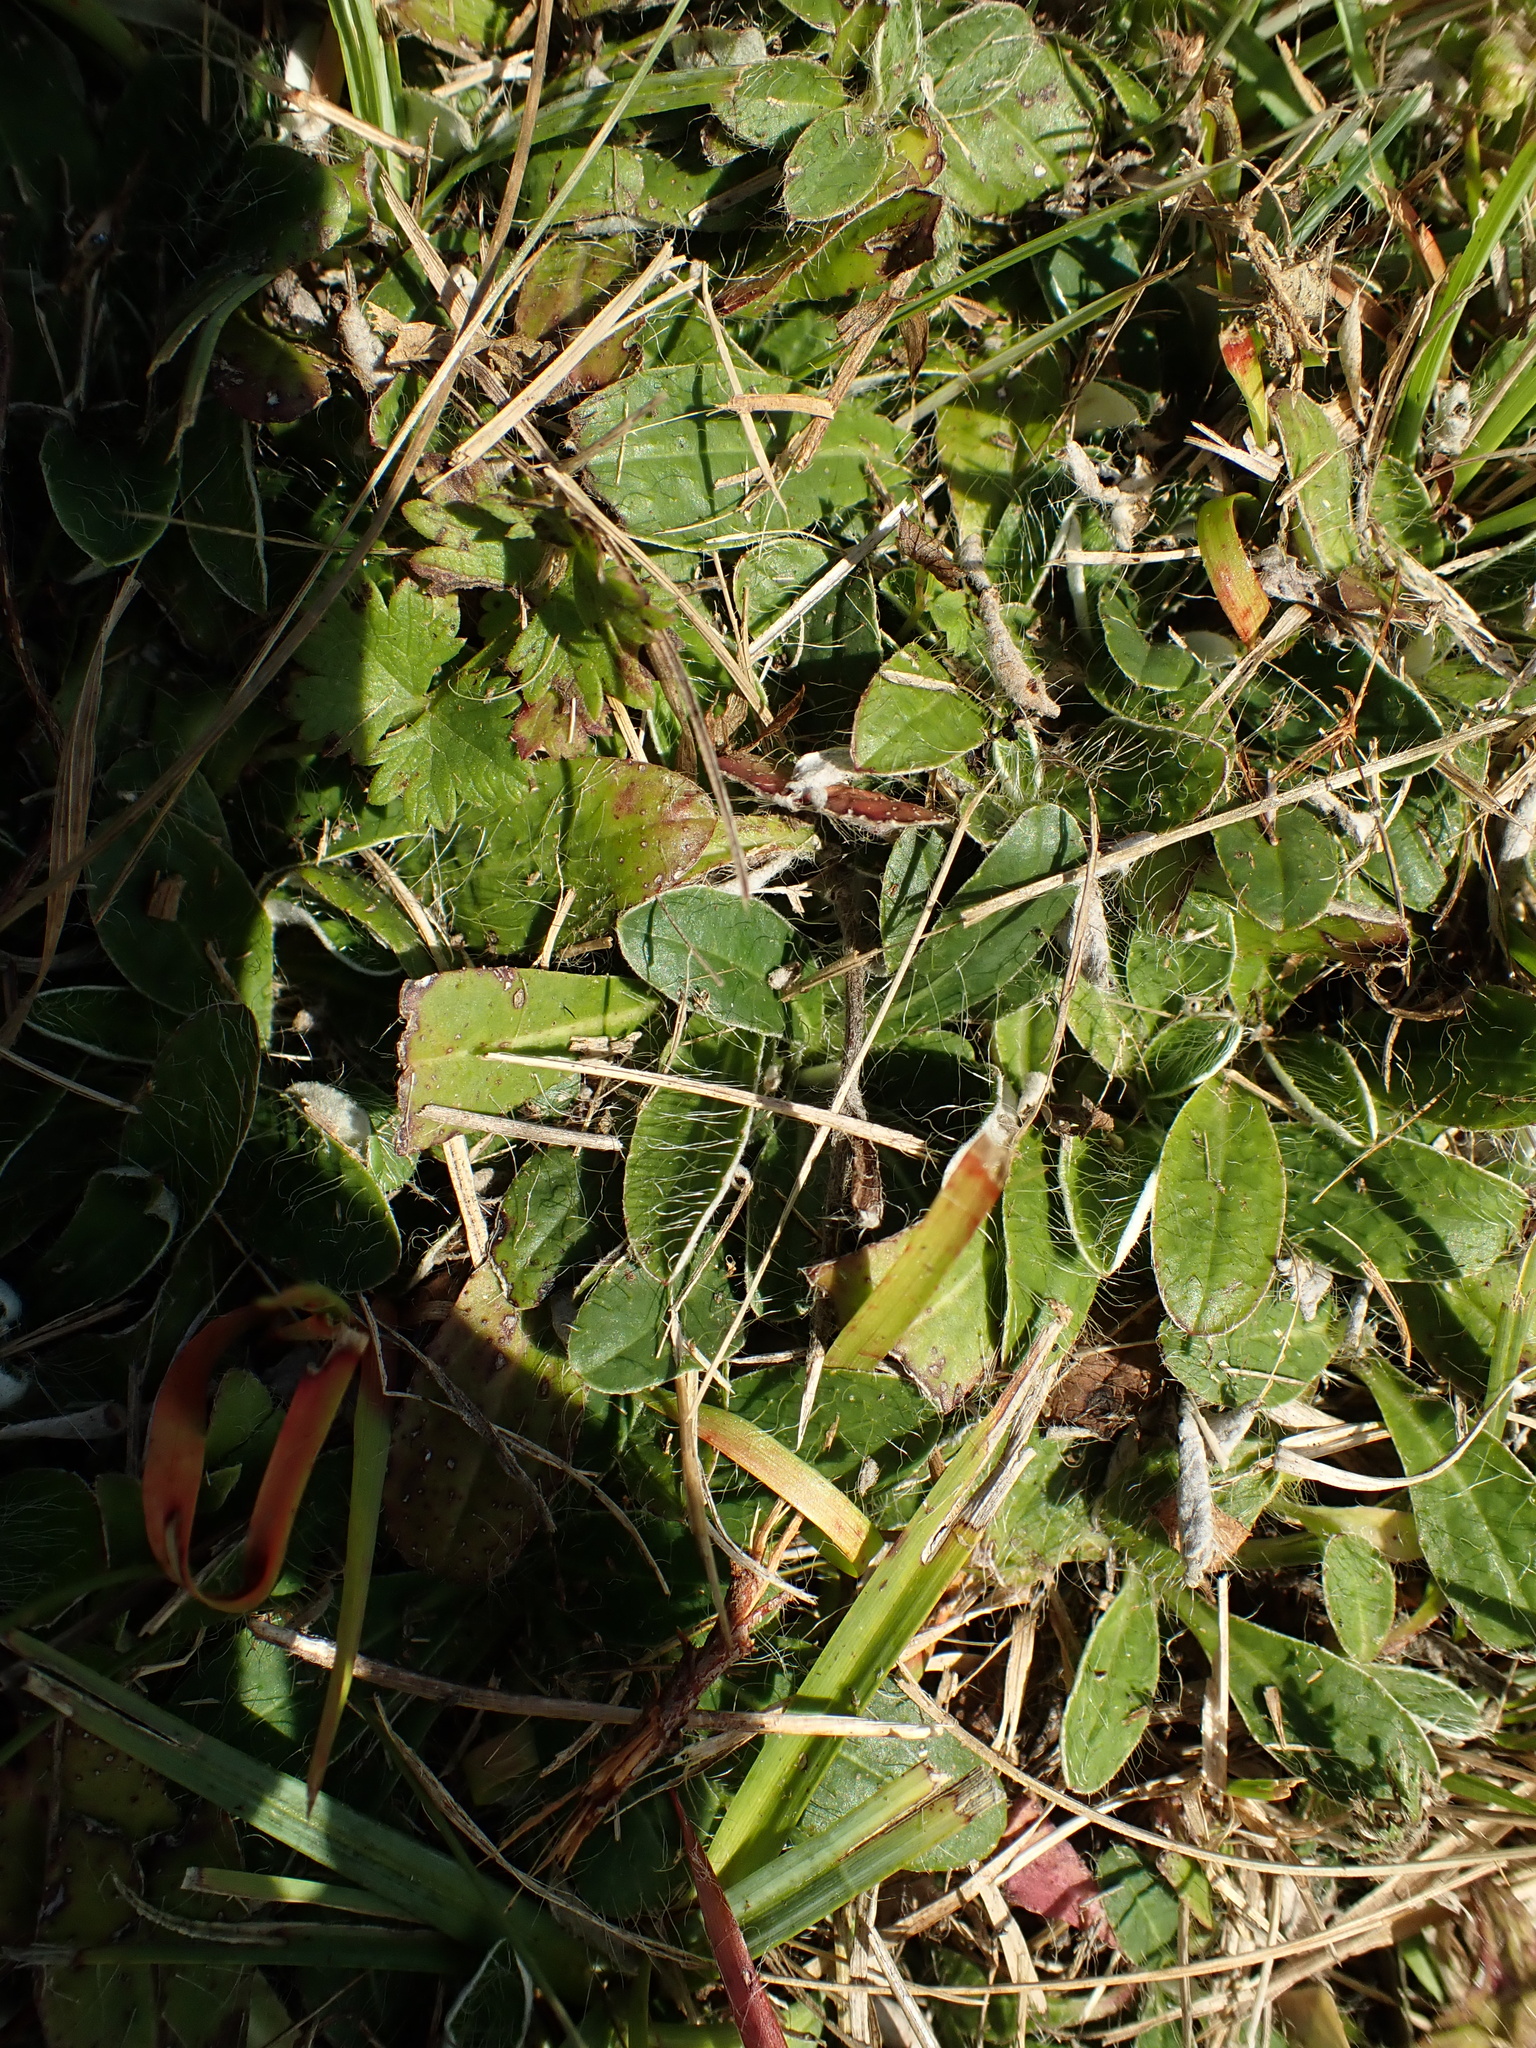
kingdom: Plantae
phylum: Tracheophyta
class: Magnoliopsida
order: Asterales
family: Asteraceae
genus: Pilosella
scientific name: Pilosella officinarum
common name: Mouse-ear hawkweed
